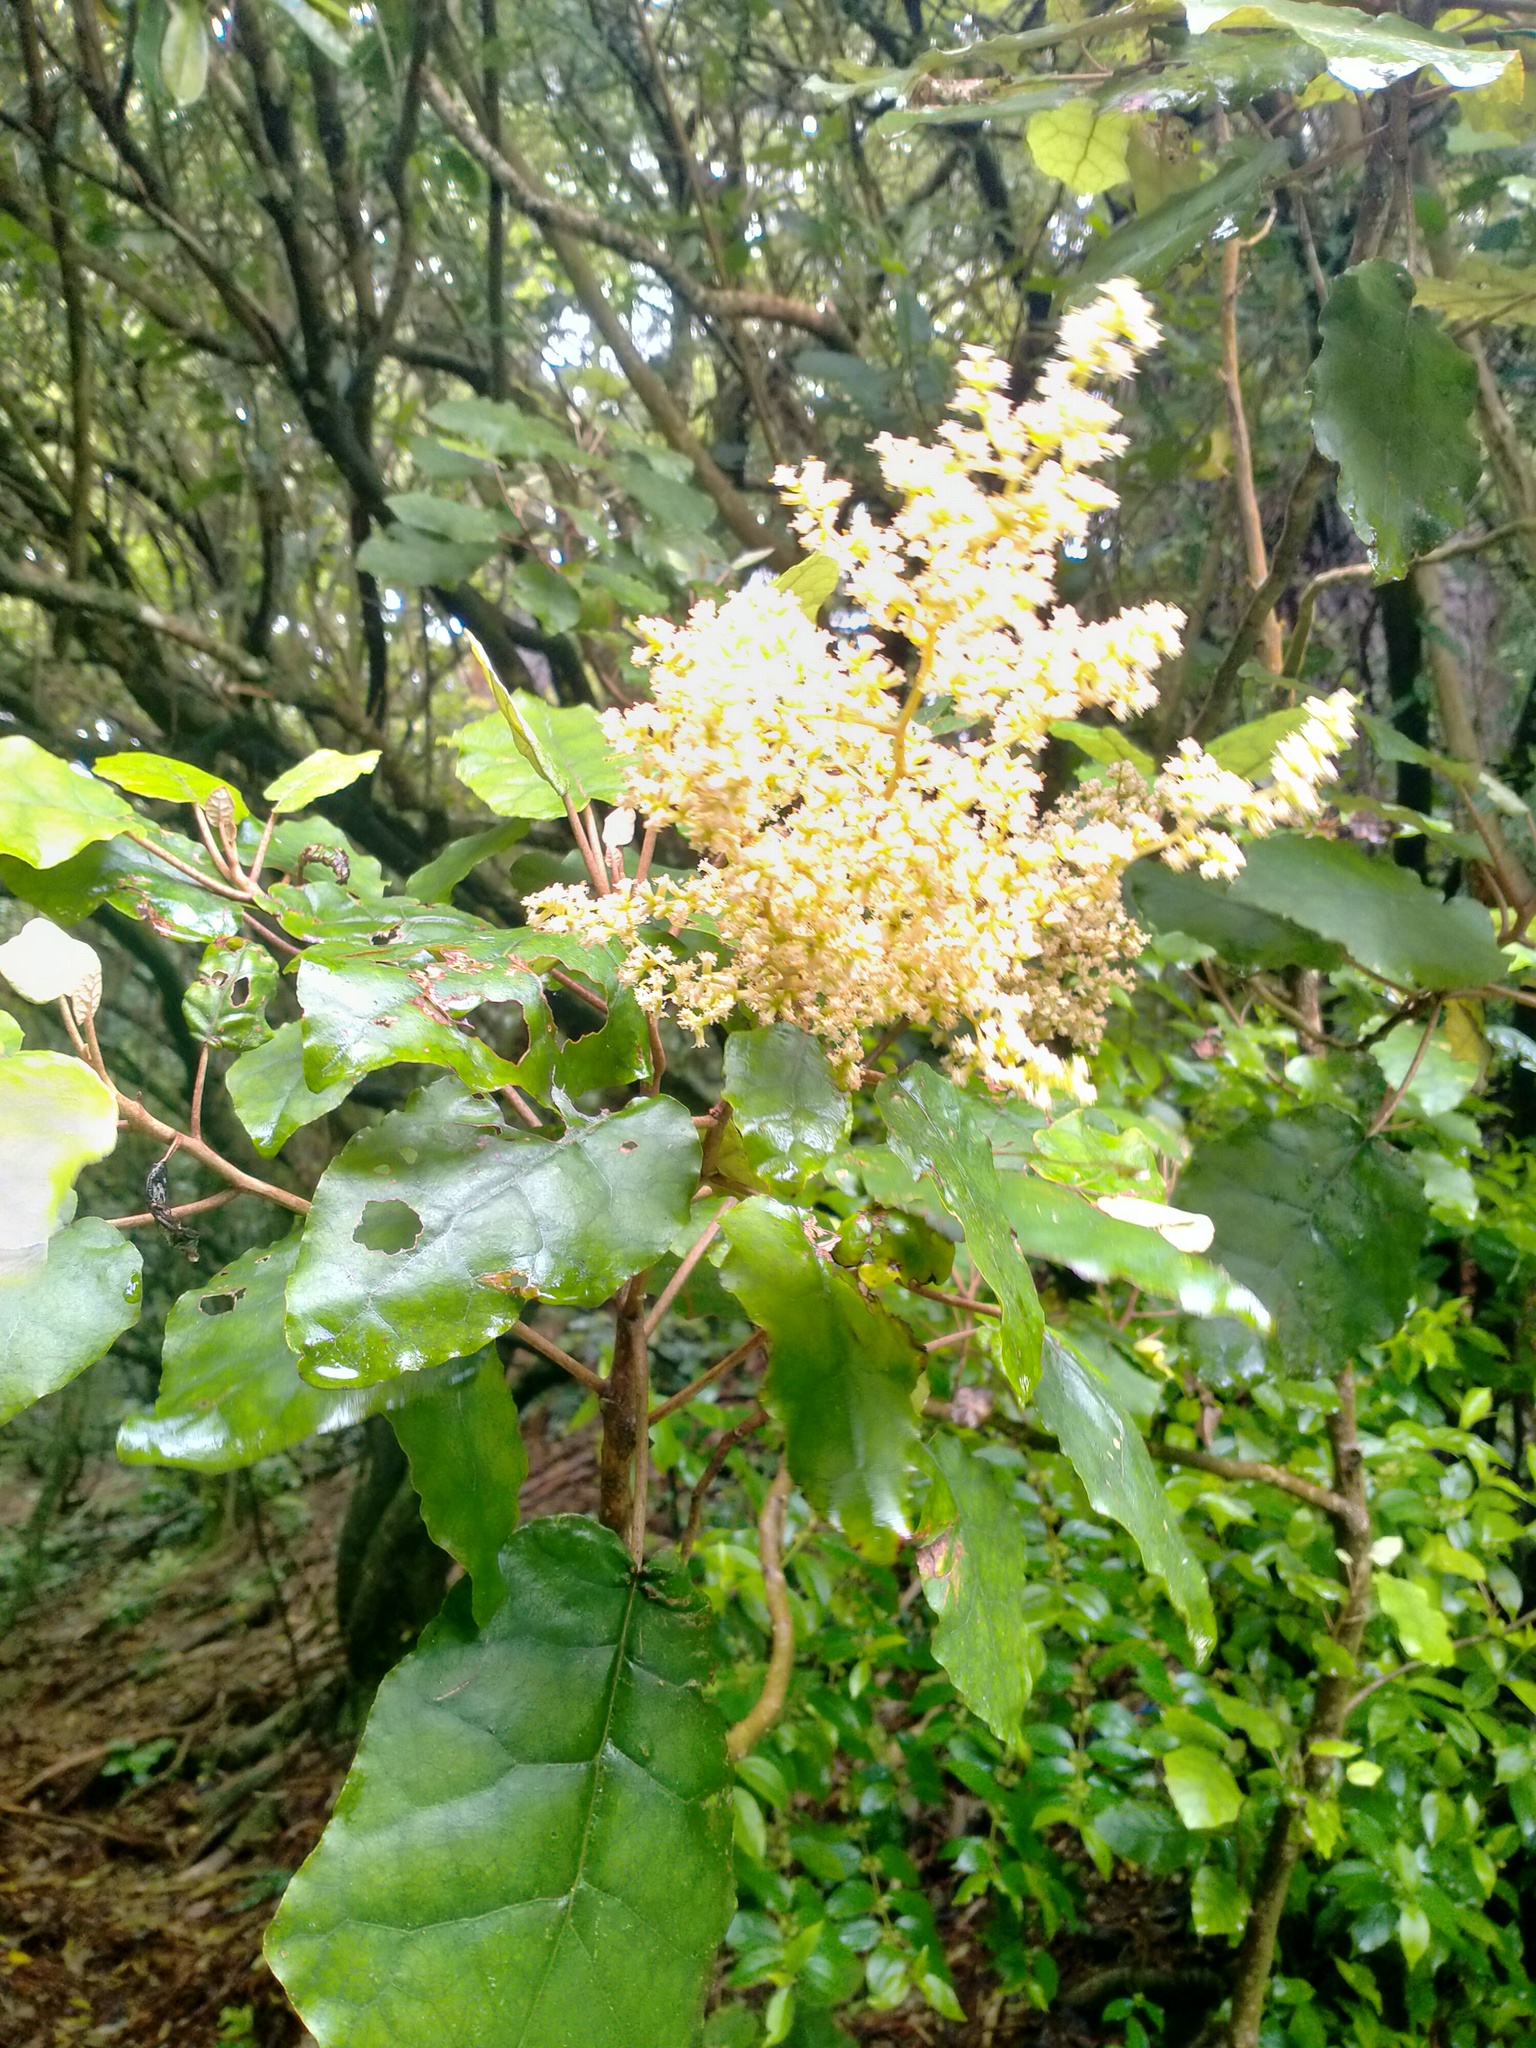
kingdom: Plantae
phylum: Tracheophyta
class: Magnoliopsida
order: Asterales
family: Asteraceae
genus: Brachyglottis
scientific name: Brachyglottis repanda
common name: Hedge ragwort
